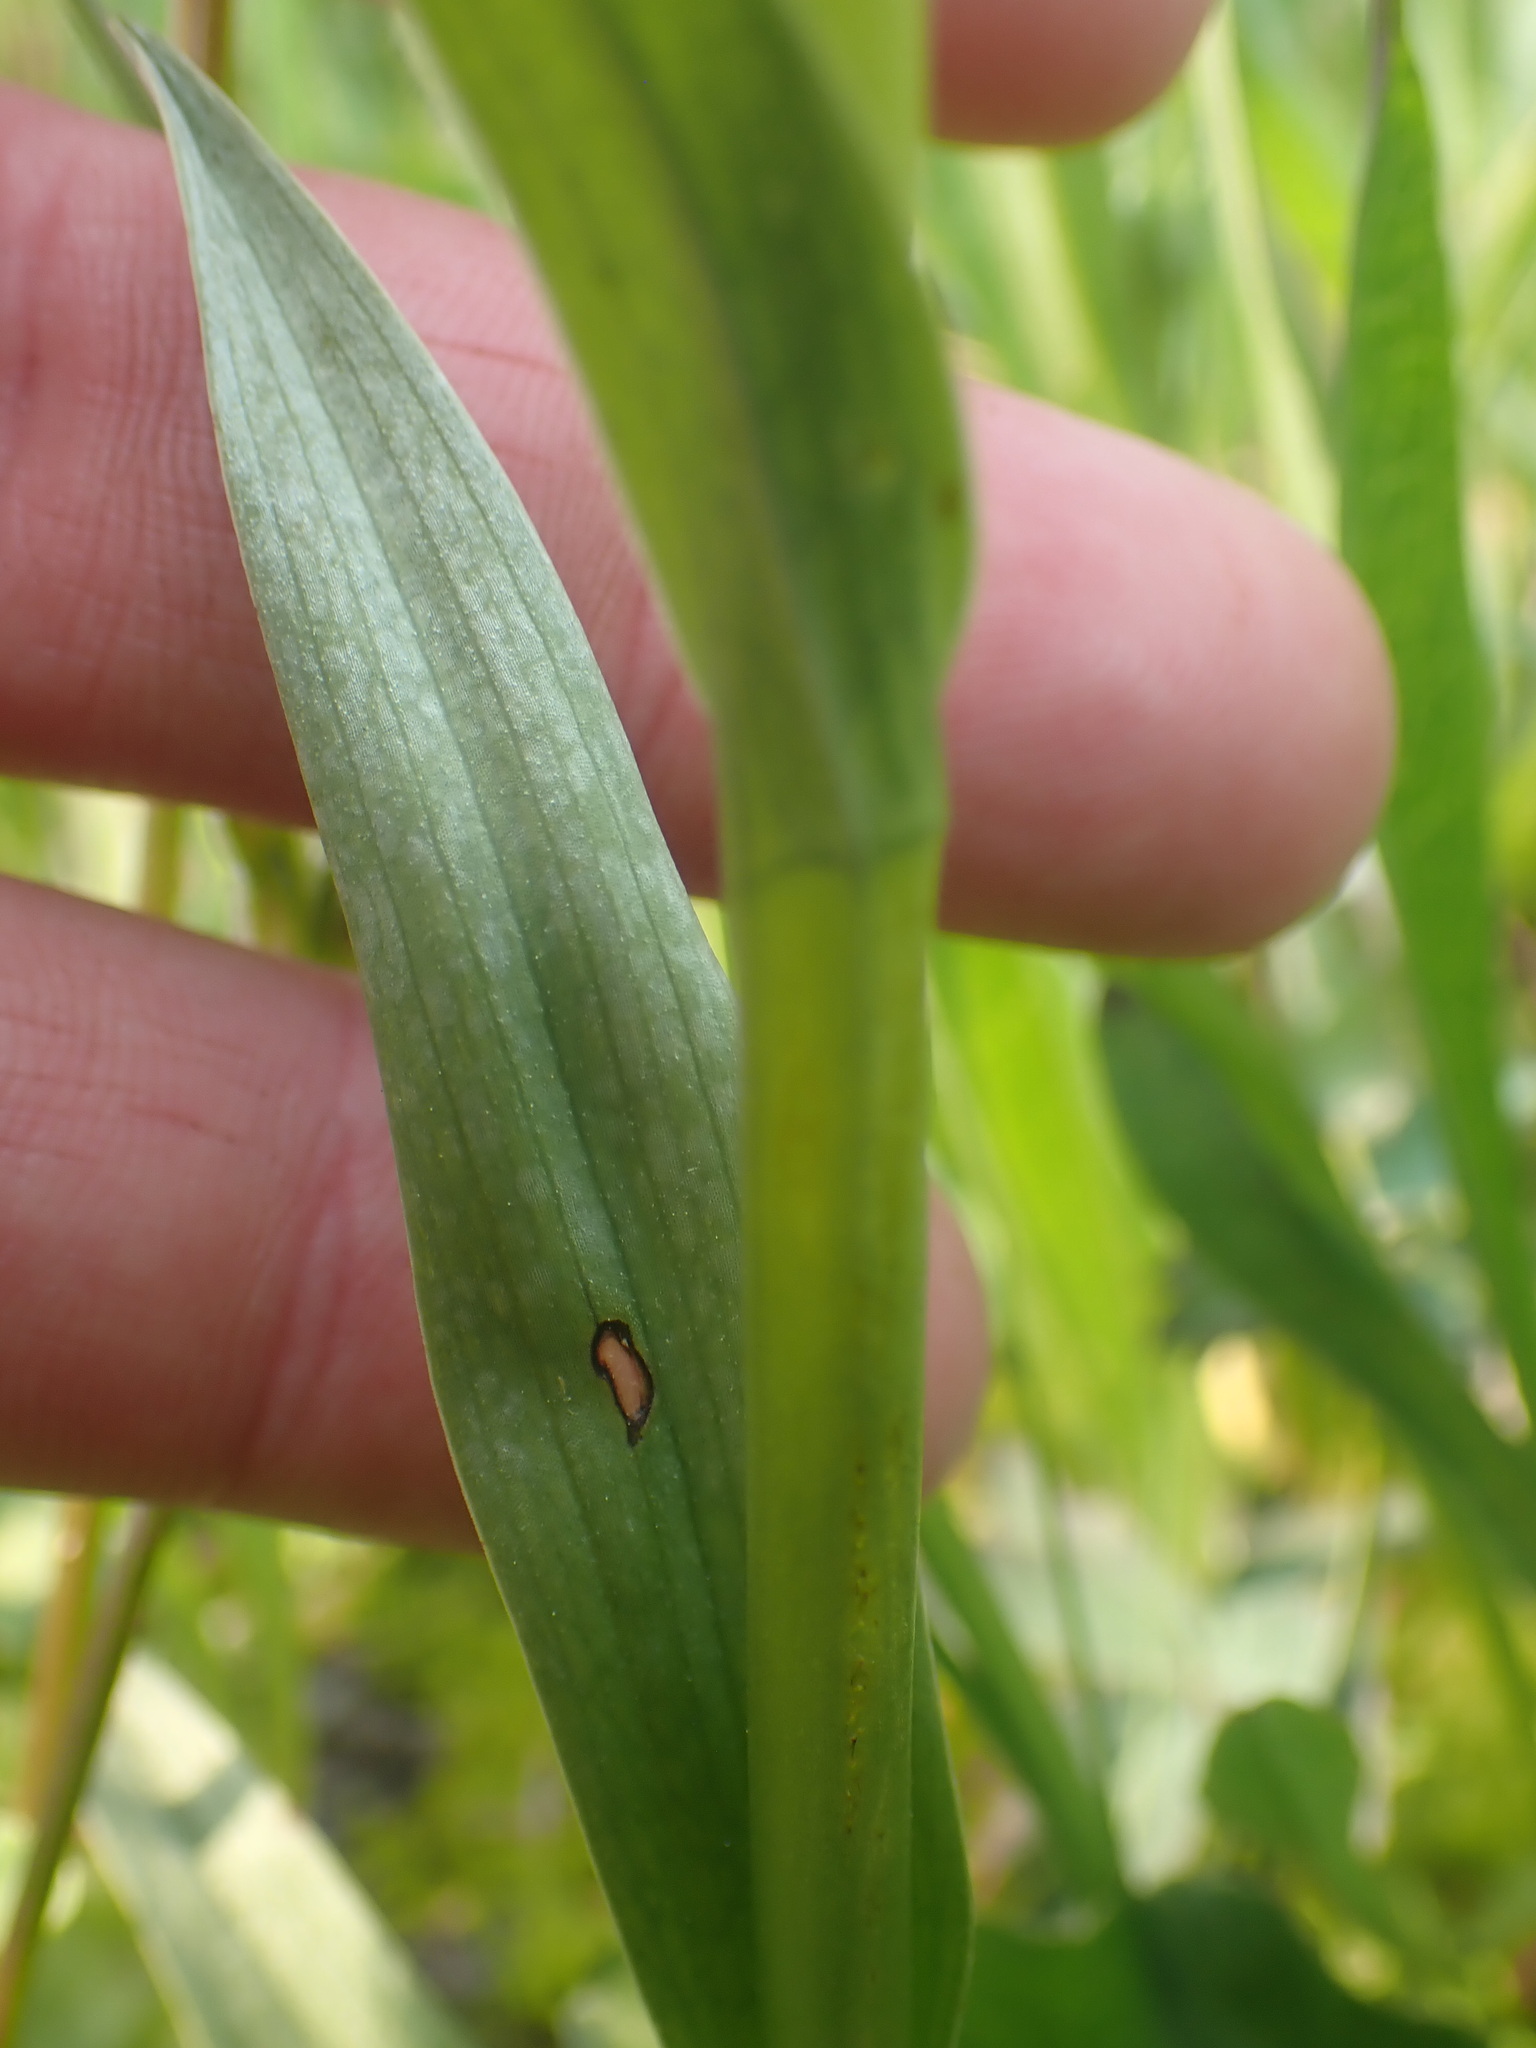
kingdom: Plantae
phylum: Tracheophyta
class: Liliopsida
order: Asparagales
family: Orchidaceae
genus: Platanthera
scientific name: Platanthera dilatata
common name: Bog candles
